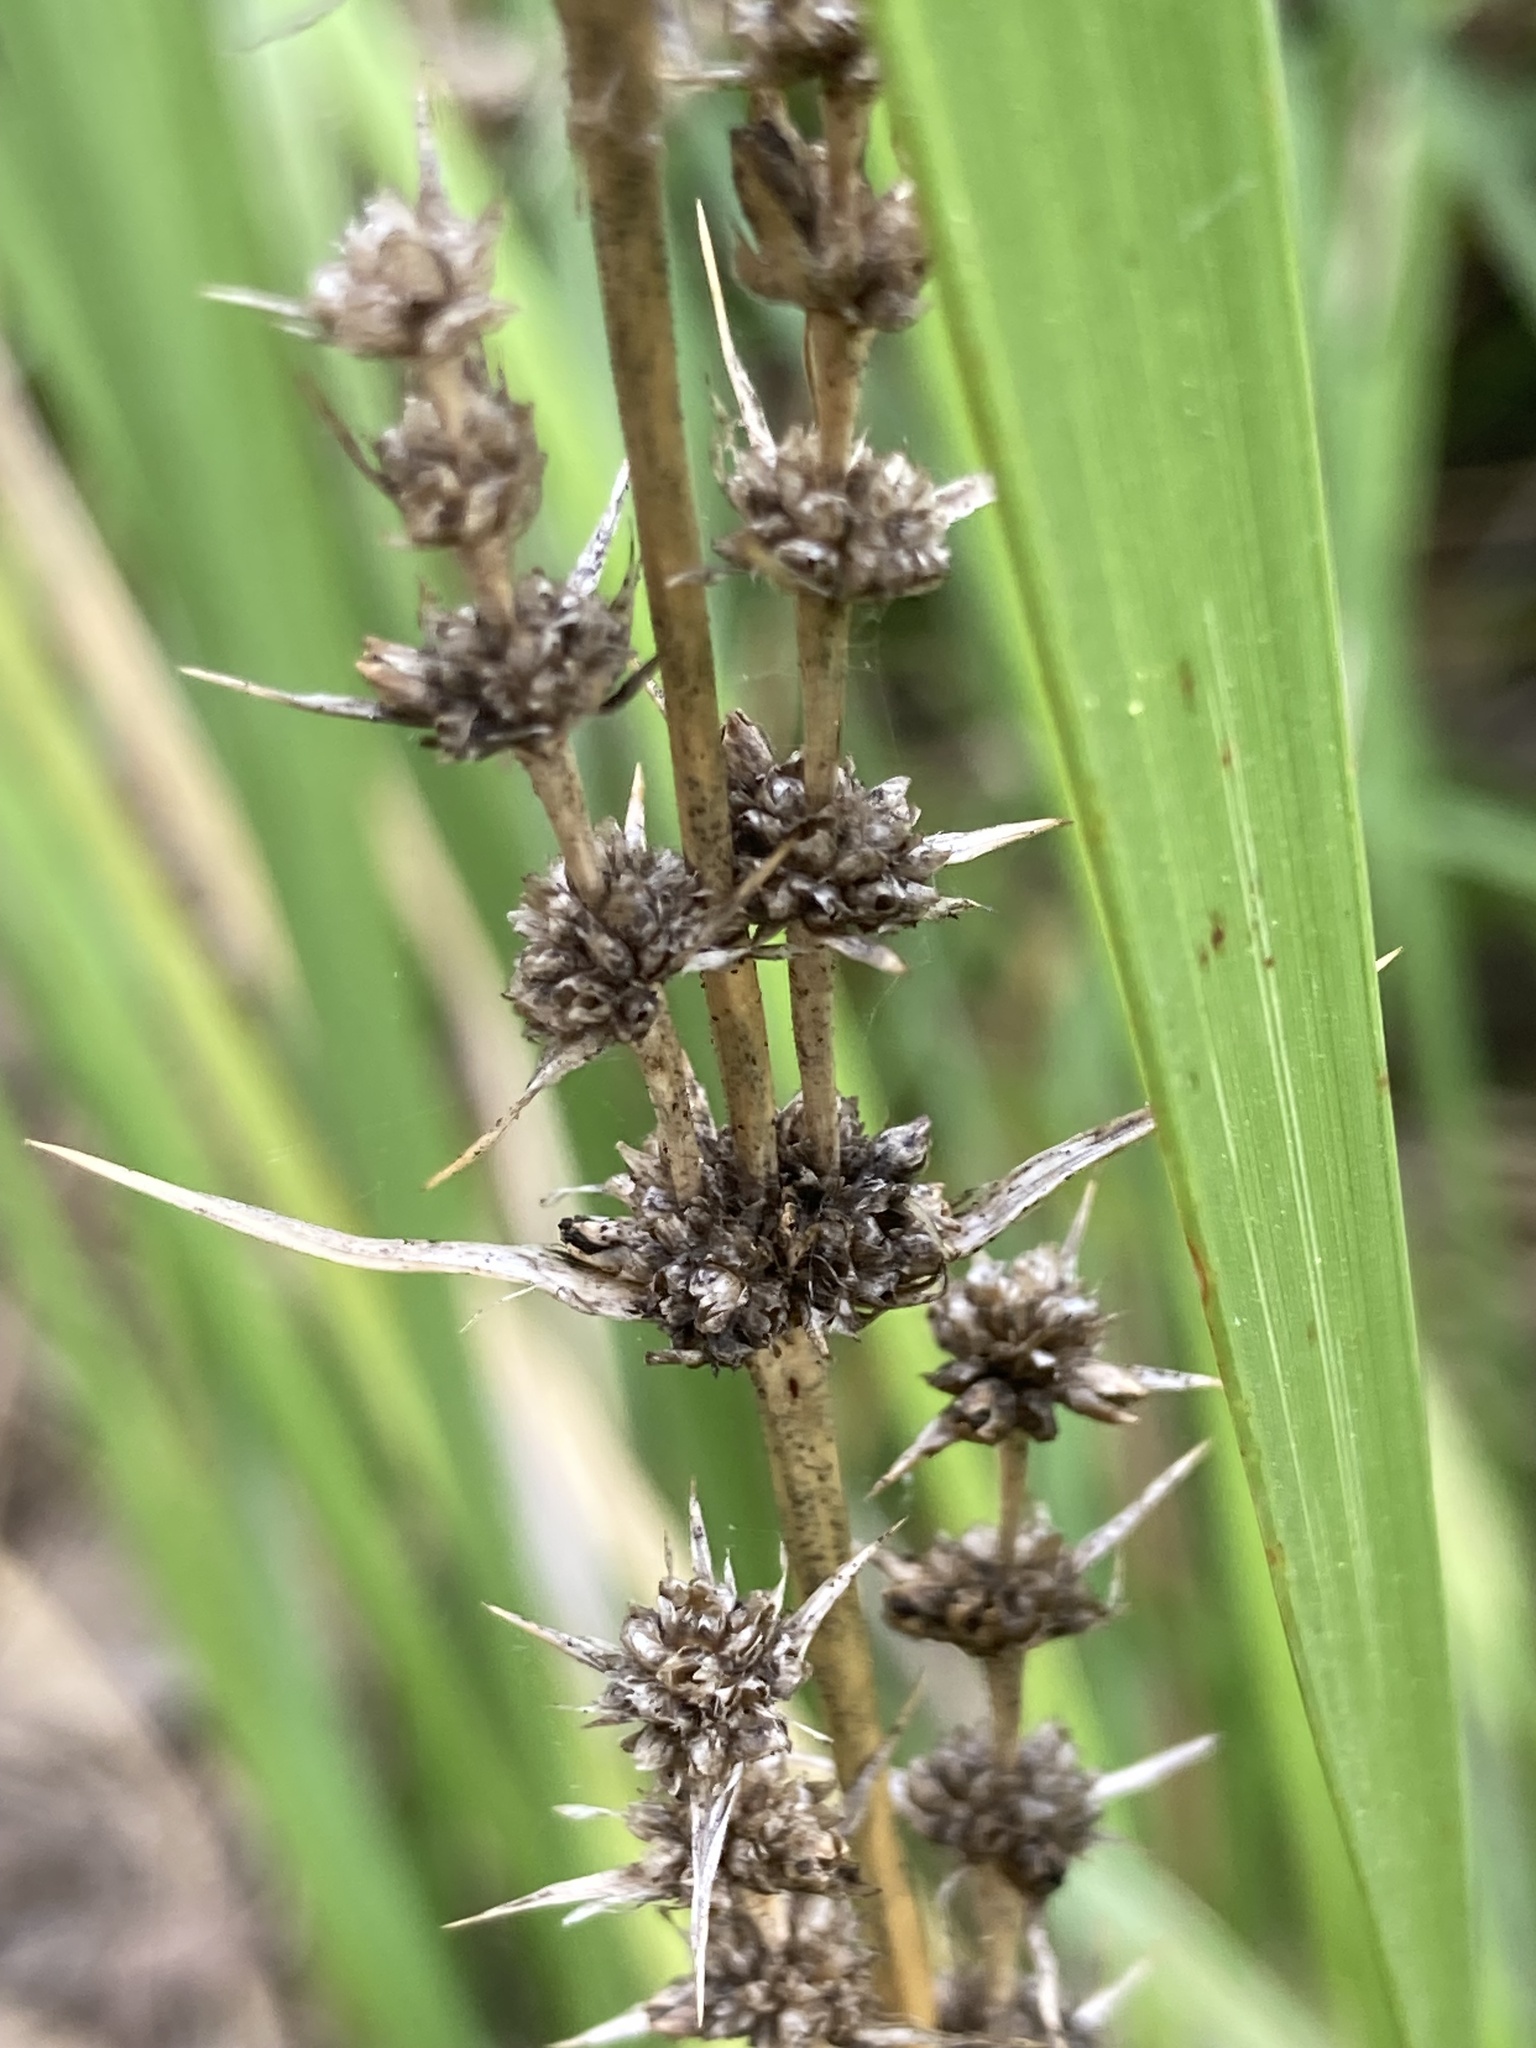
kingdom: Plantae
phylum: Tracheophyta
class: Liliopsida
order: Asparagales
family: Asparagaceae
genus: Lomandra
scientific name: Lomandra longifolia
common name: Longleaf mat-rush
